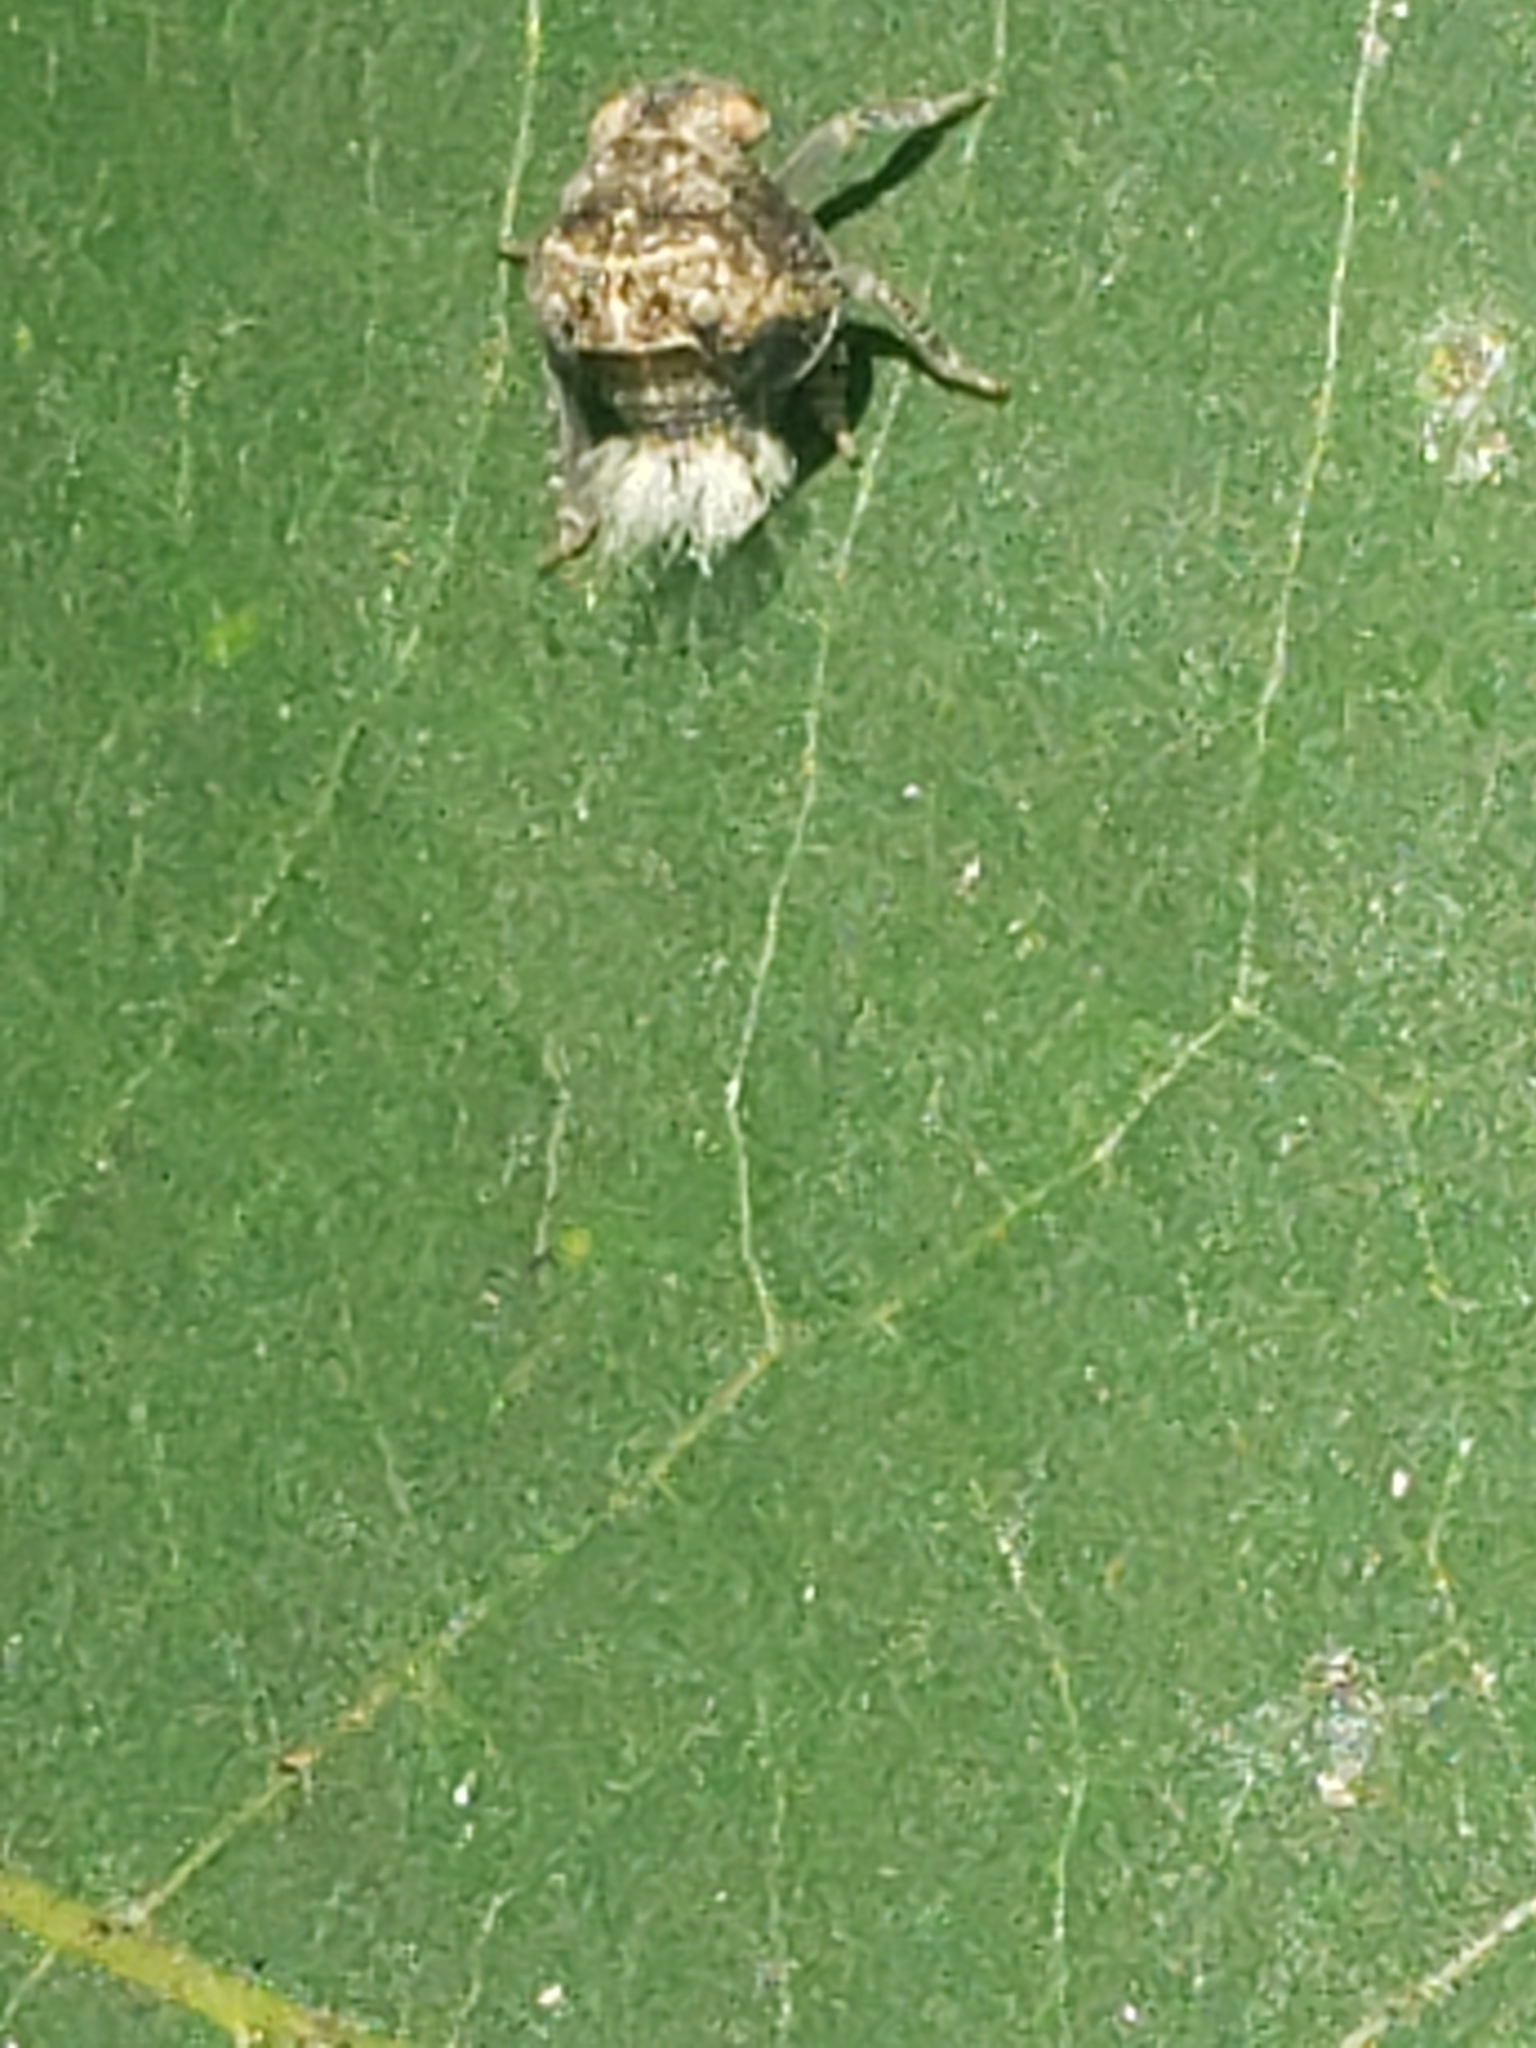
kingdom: Animalia
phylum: Arthropoda
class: Insecta
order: Hemiptera
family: Acanaloniidae
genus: Acanalonia
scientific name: Acanalonia bivittata
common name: Two-striped planthopper
